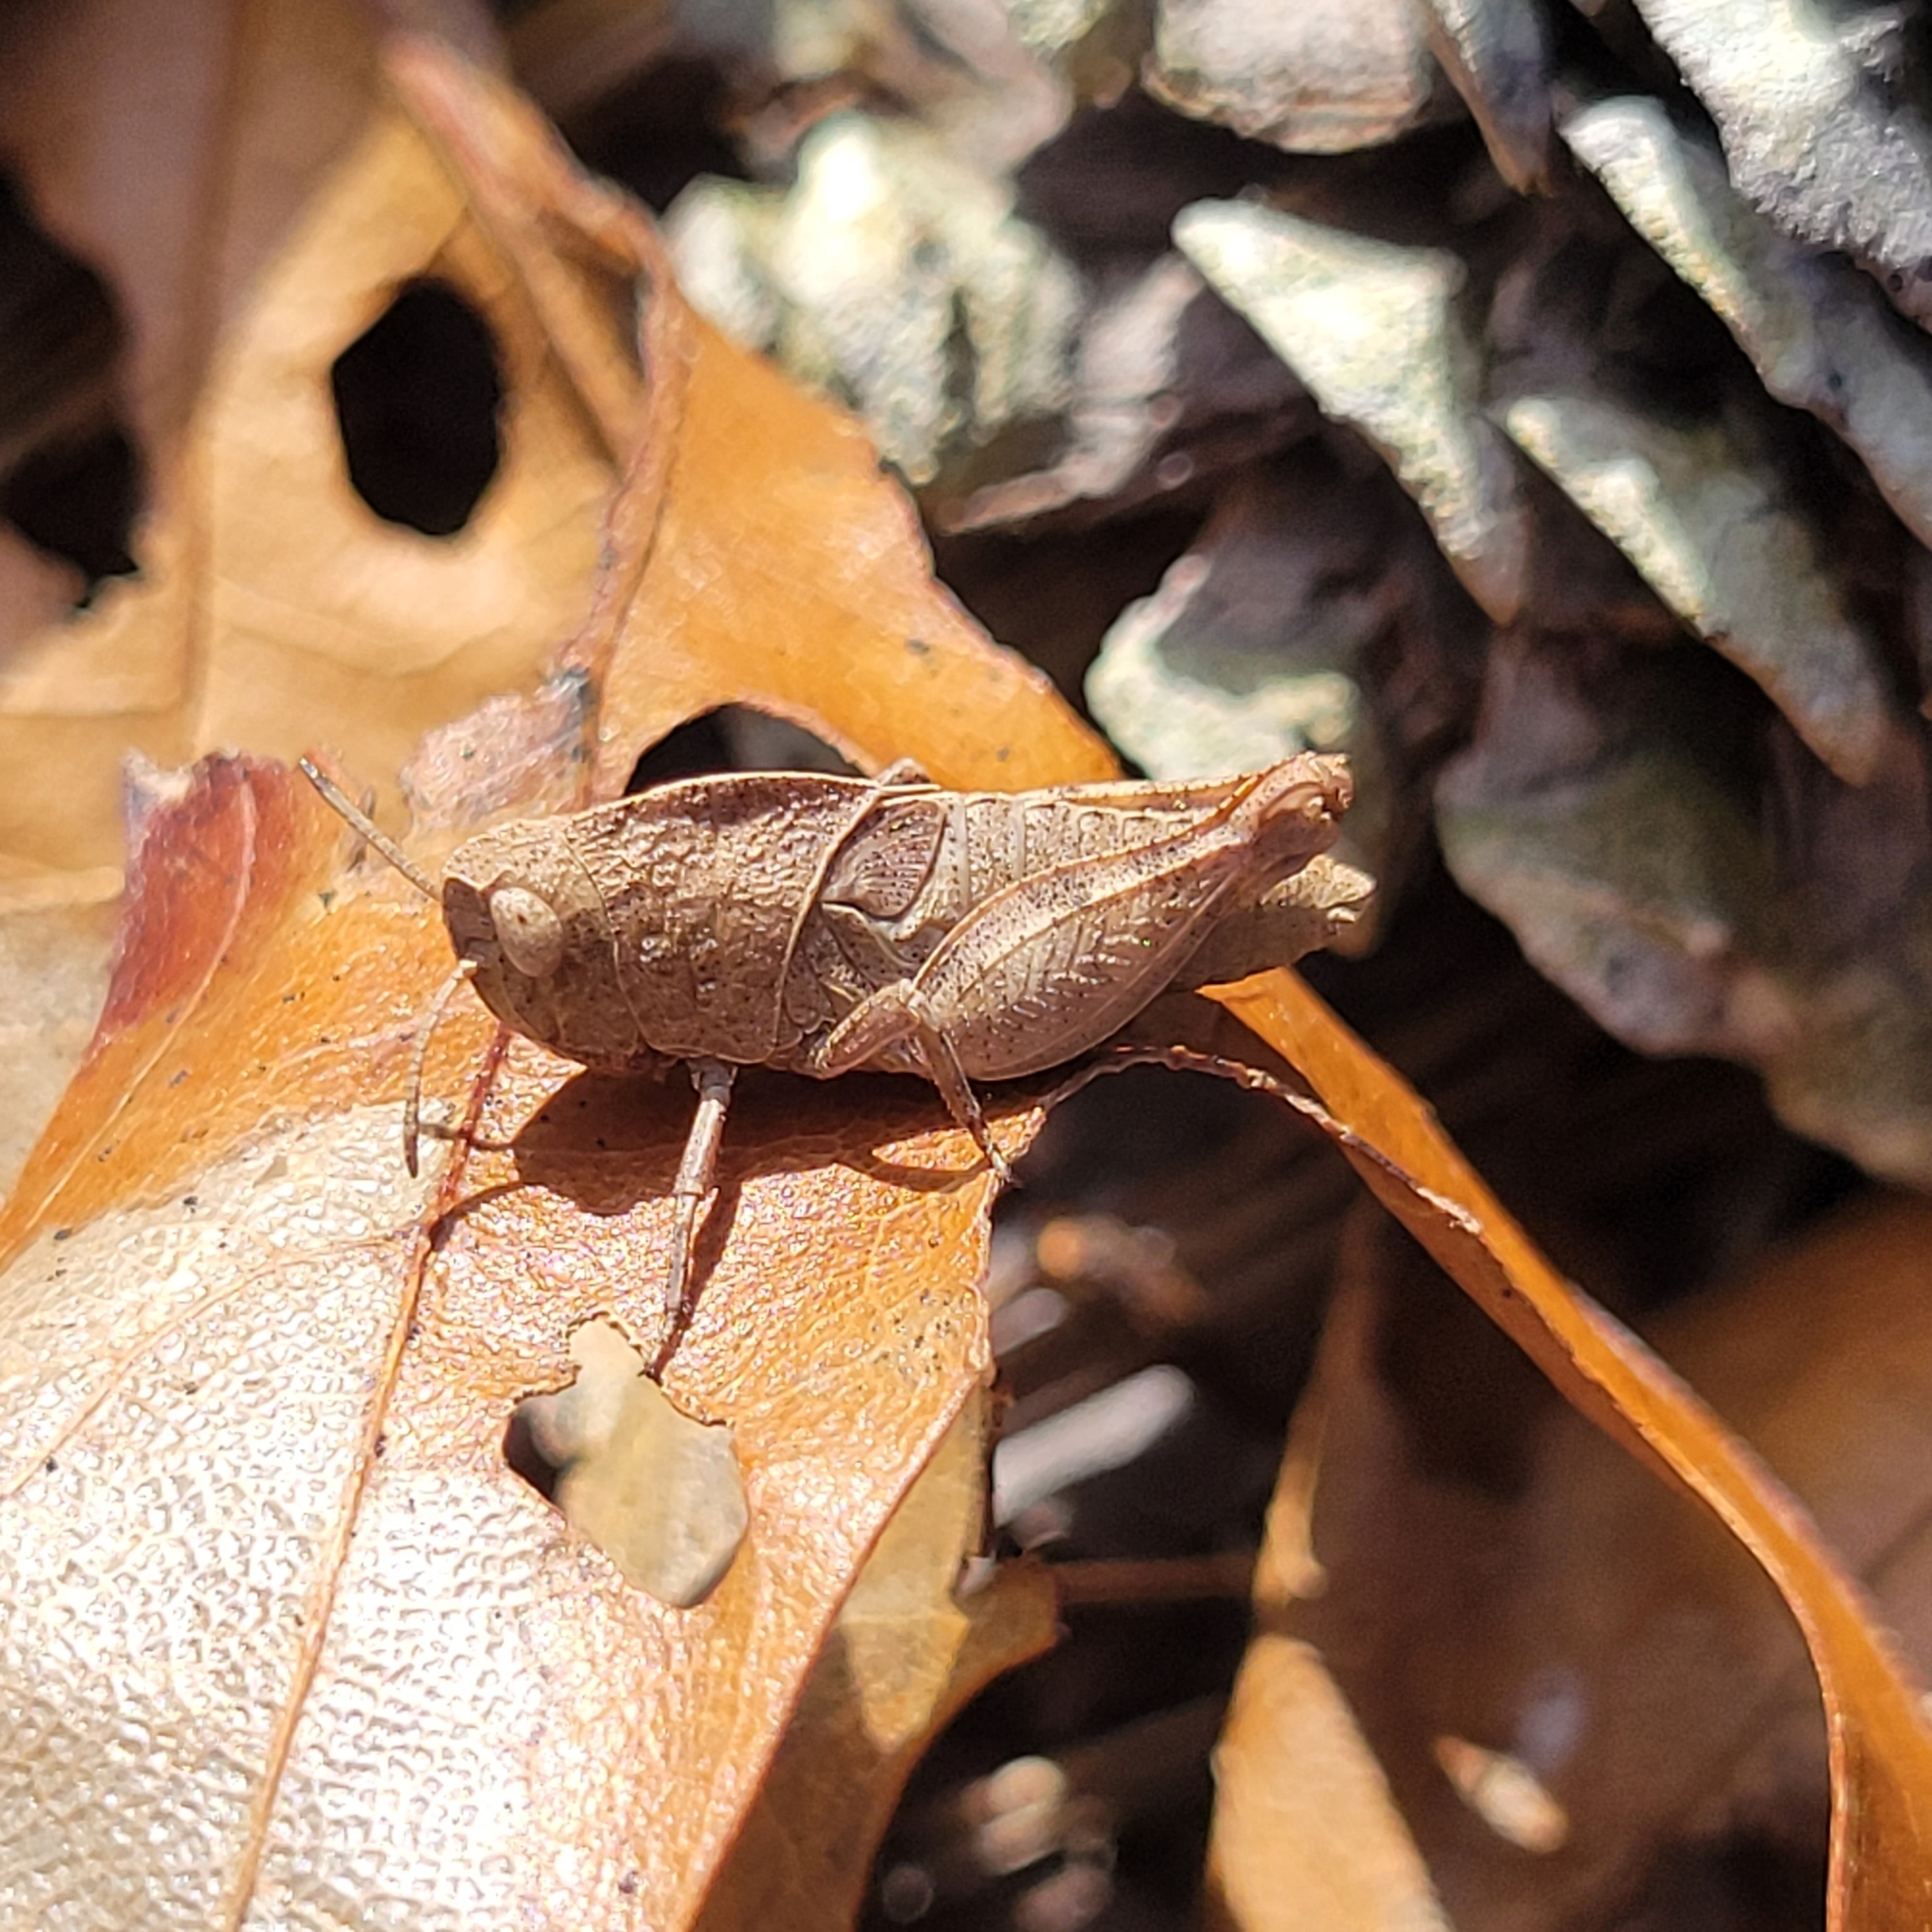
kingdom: Animalia
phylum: Arthropoda
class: Insecta
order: Orthoptera
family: Acrididae
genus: Arphia
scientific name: Arphia sulphurea
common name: Spring yellow-winged locust
